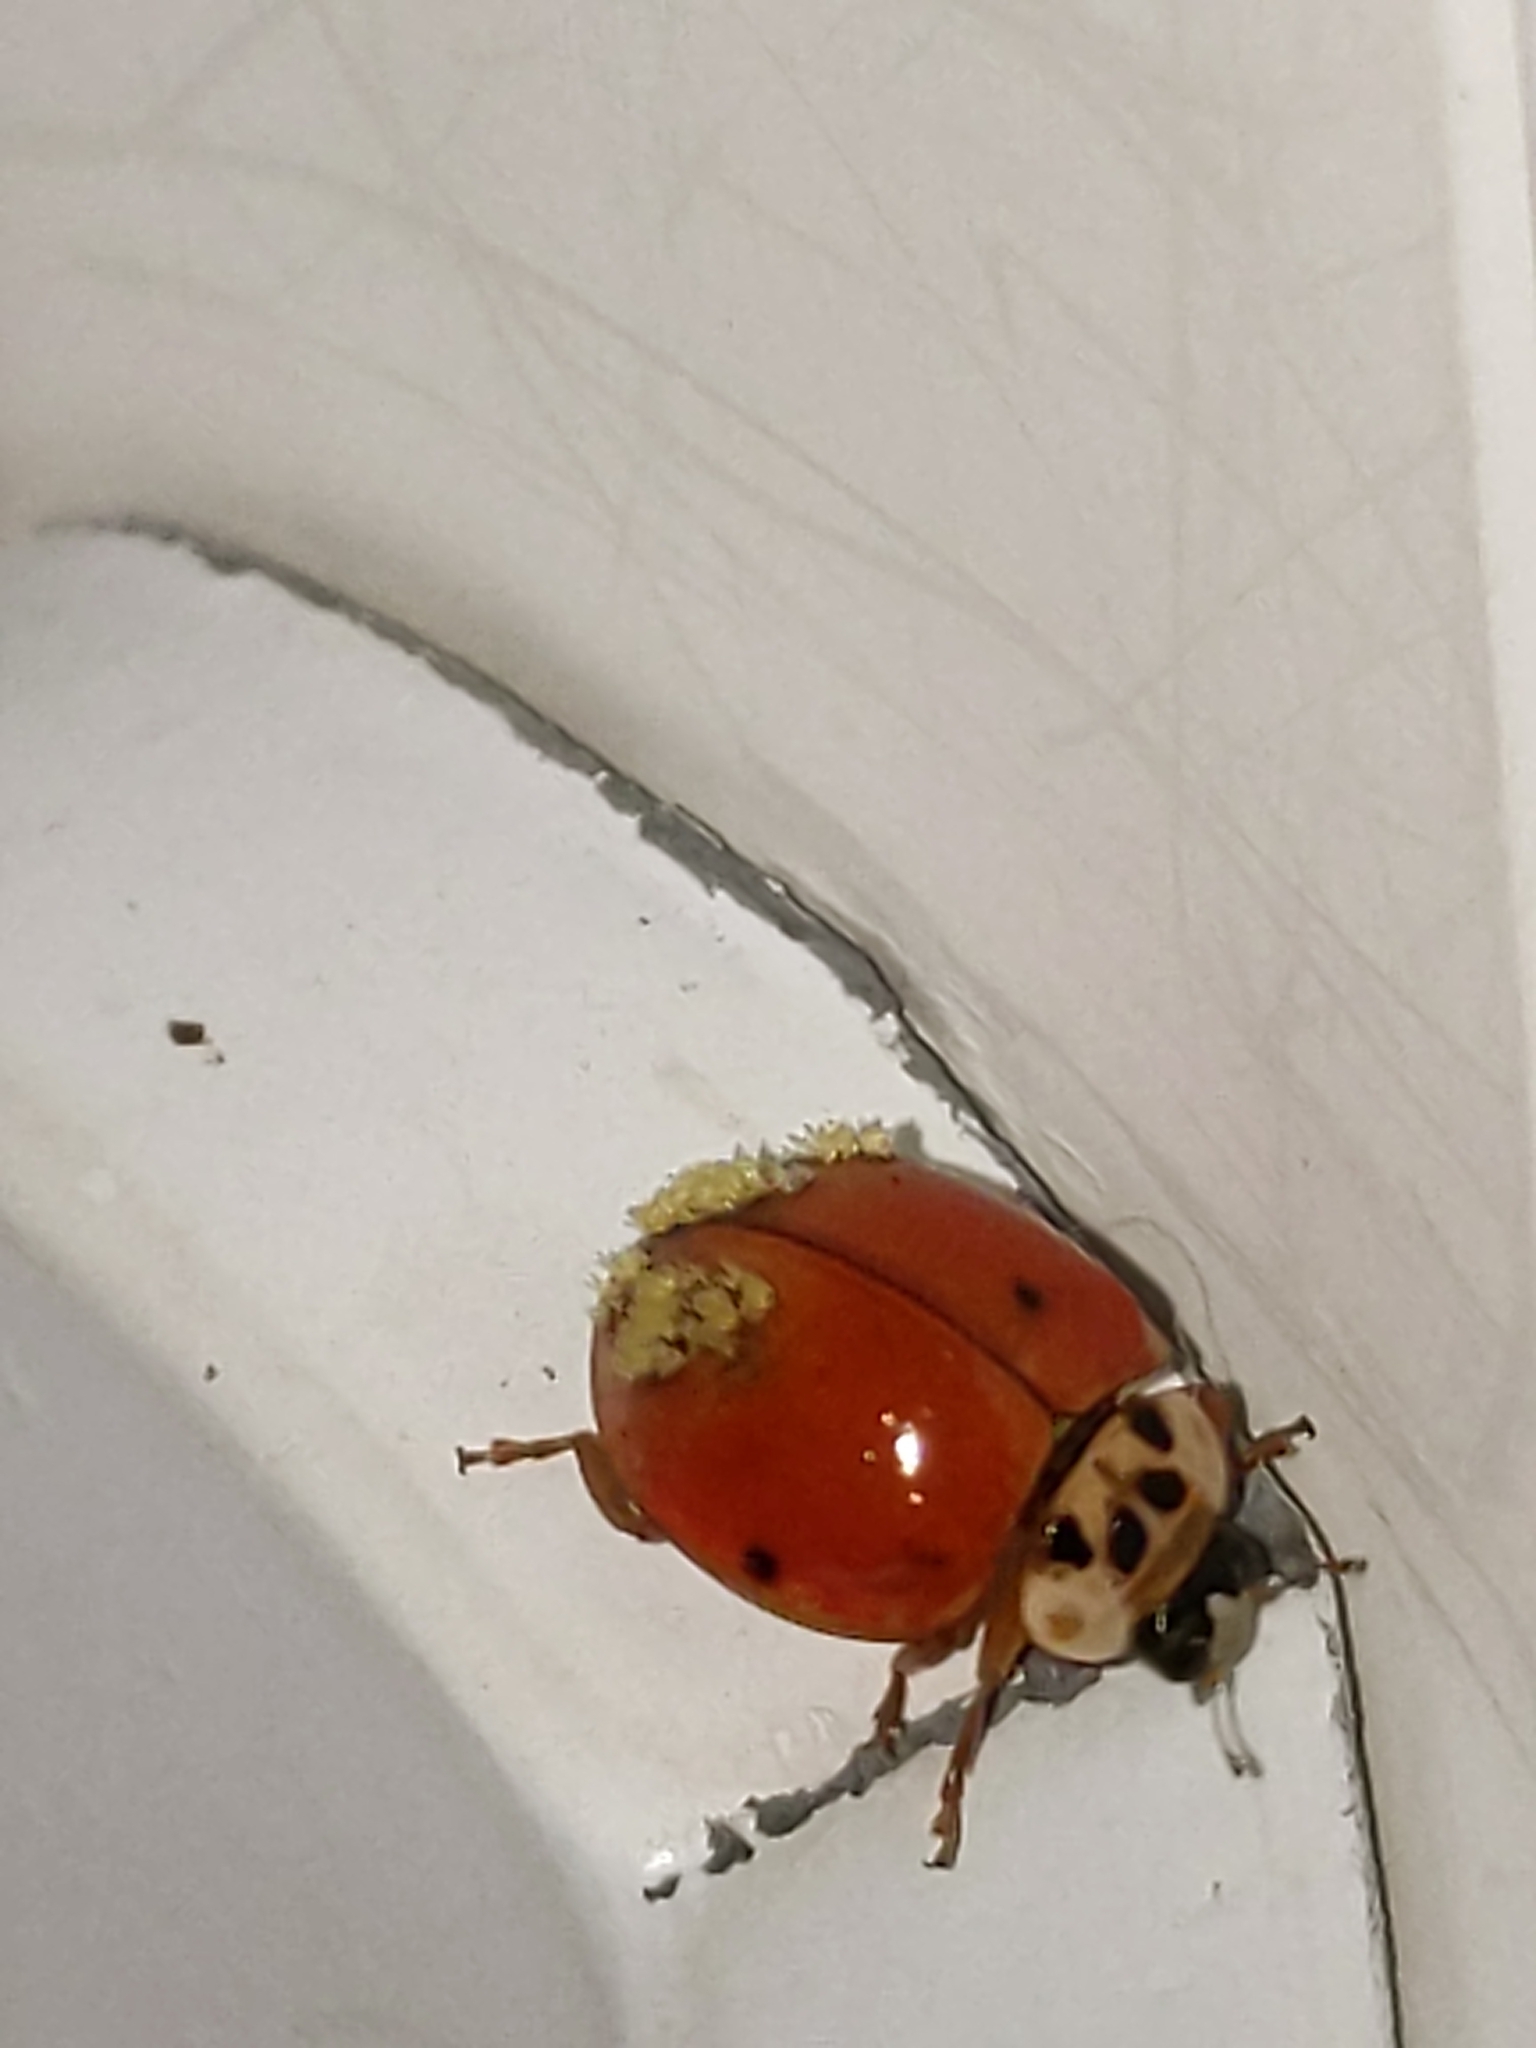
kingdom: Fungi
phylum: Ascomycota
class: Laboulbeniomycetes
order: Laboulbeniales
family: Laboulbeniaceae
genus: Hesperomyces
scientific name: Hesperomyces harmoniae
